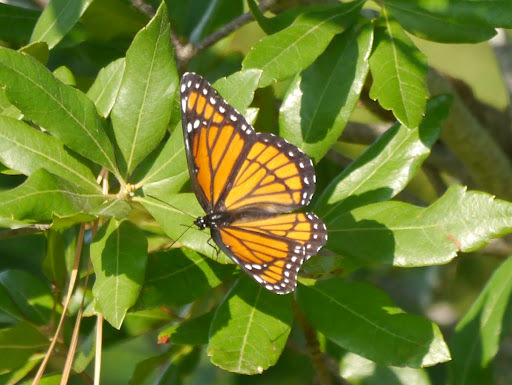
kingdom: Animalia
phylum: Arthropoda
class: Insecta
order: Lepidoptera
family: Nymphalidae
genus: Limenitis
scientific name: Limenitis archippus
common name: Viceroy
